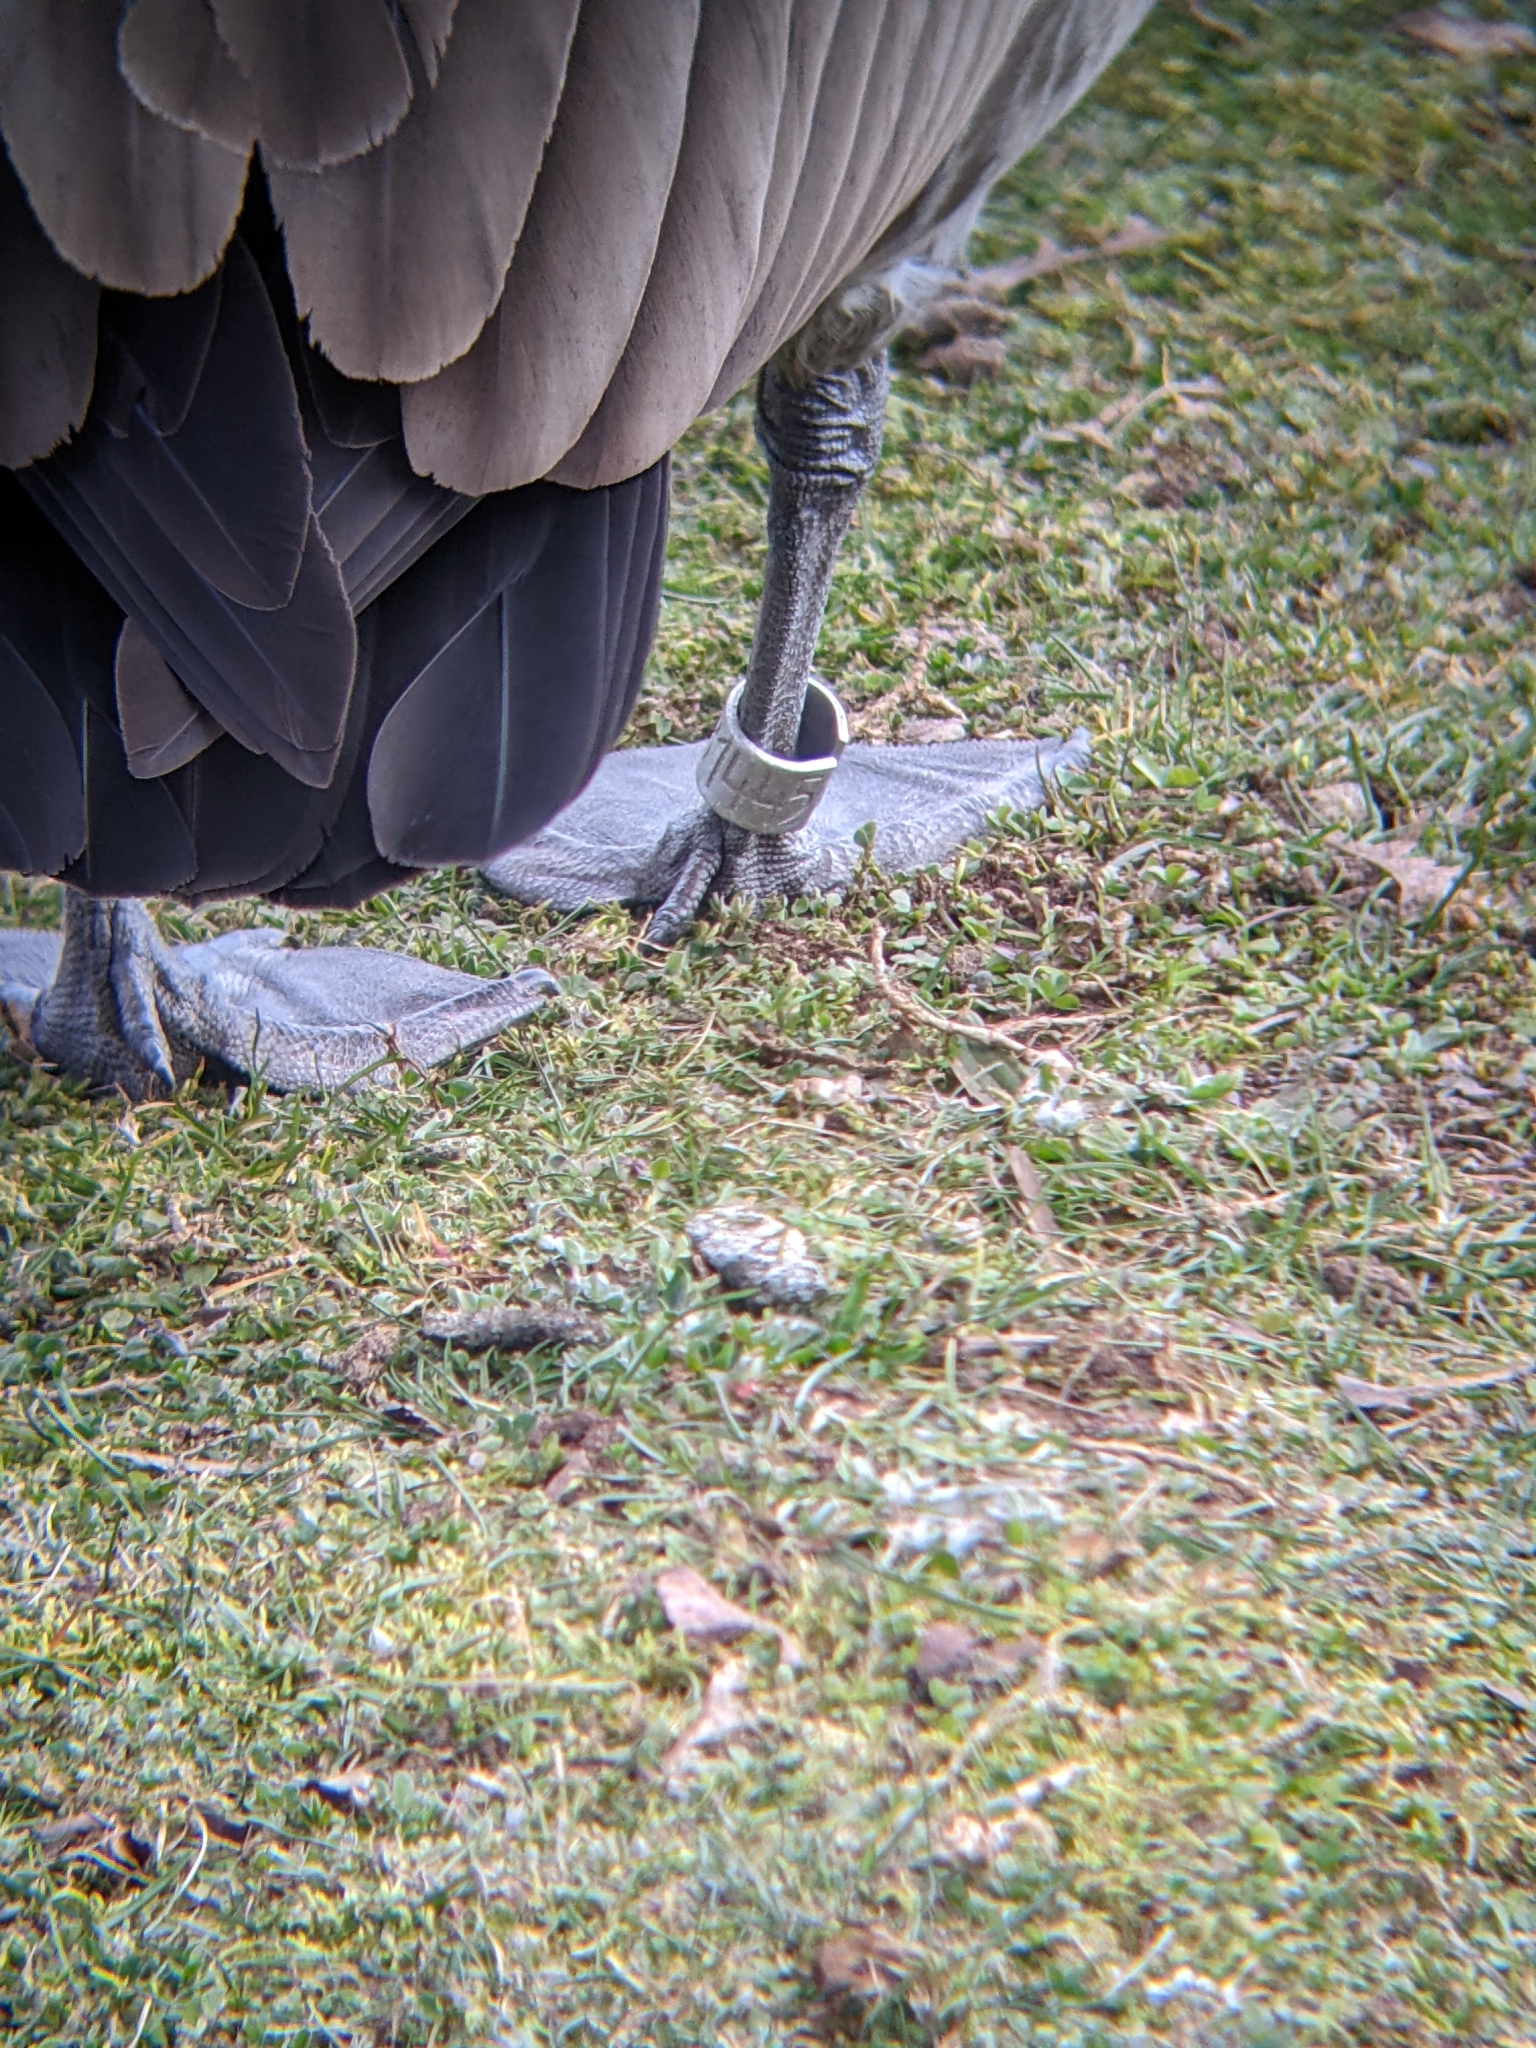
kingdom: Animalia
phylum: Chordata
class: Aves
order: Anseriformes
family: Anatidae
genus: Branta
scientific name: Branta canadensis
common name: Canada goose
